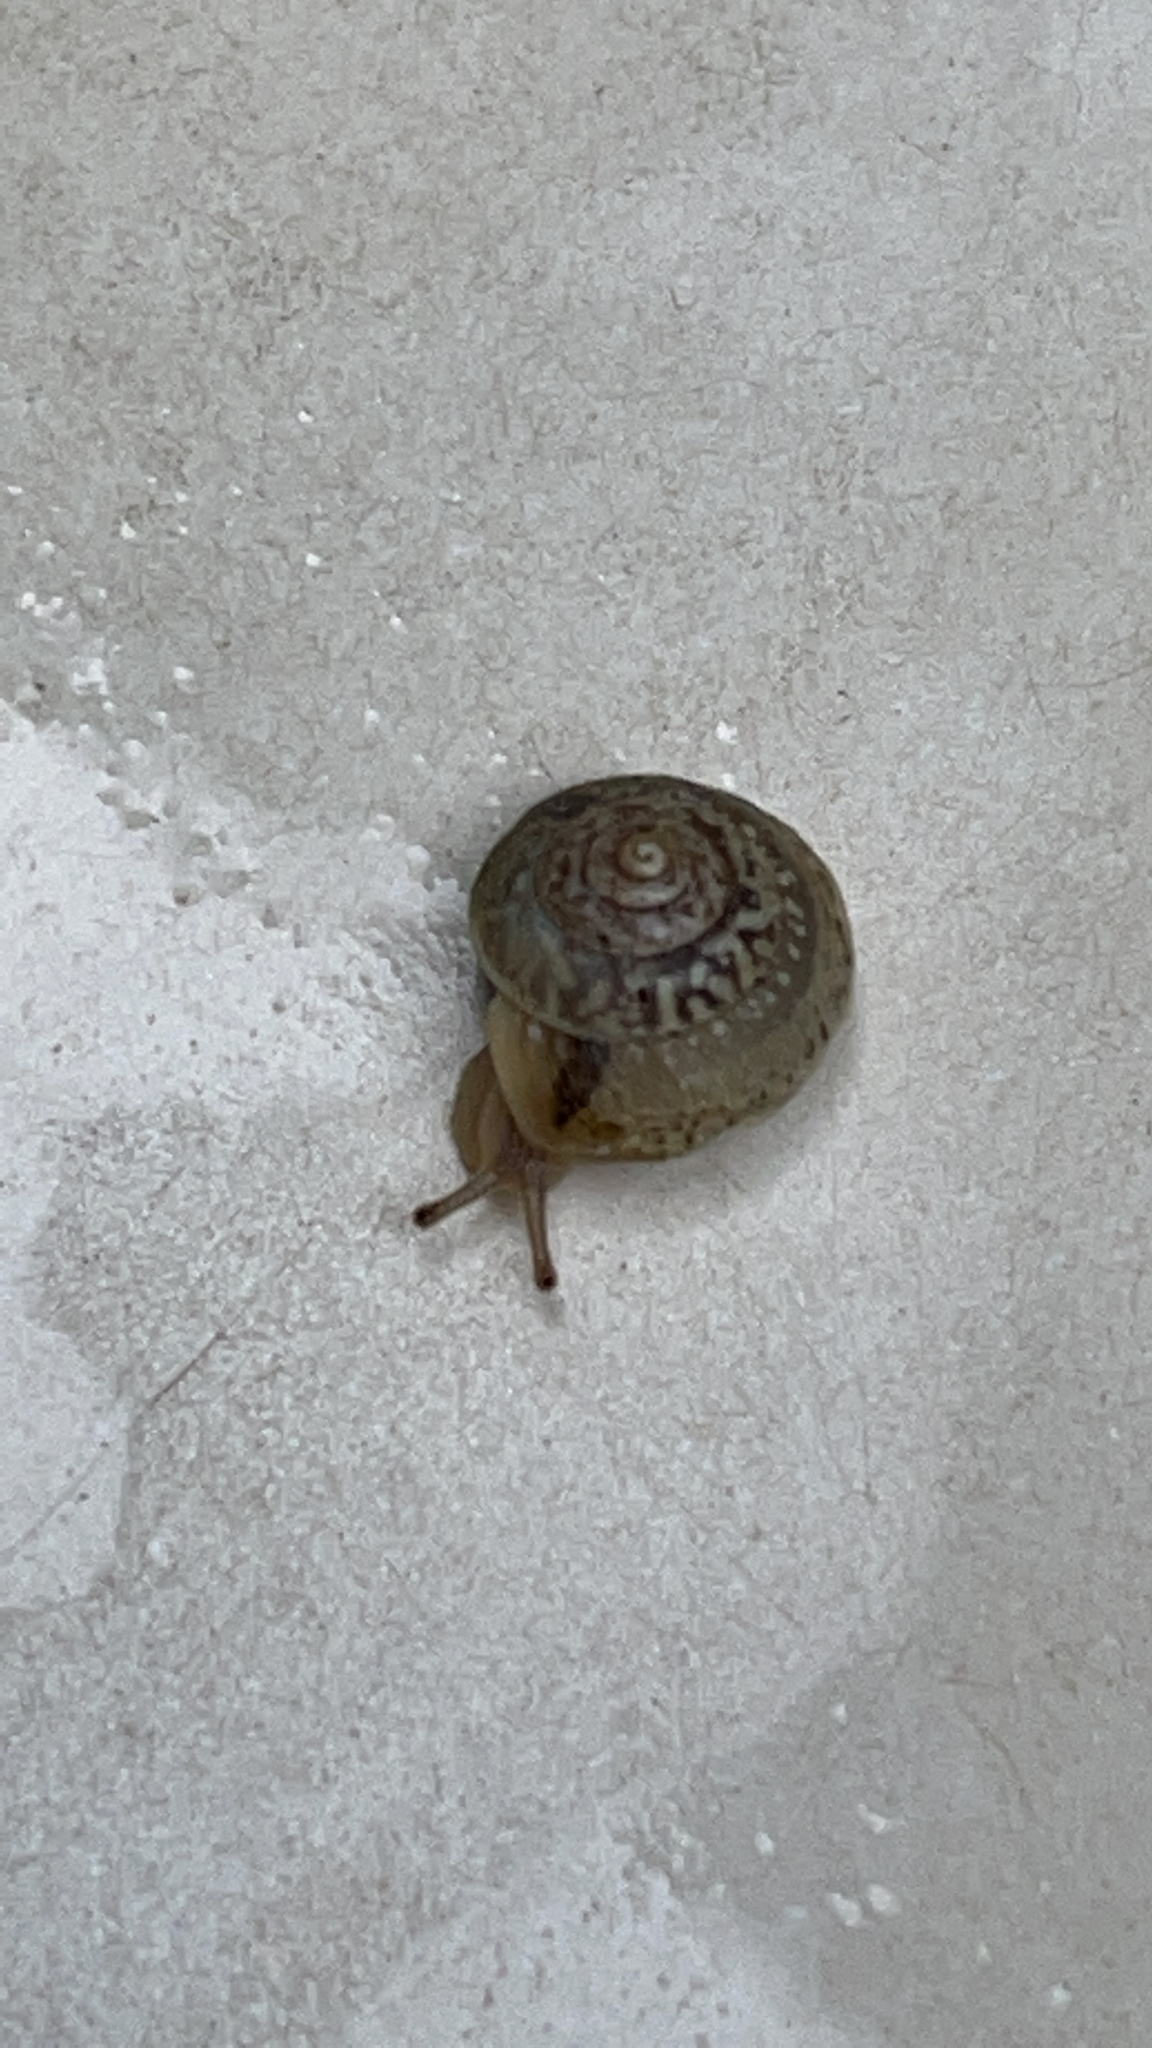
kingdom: Animalia
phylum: Mollusca
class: Gastropoda
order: Stylommatophora
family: Hygromiidae
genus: Hygromia
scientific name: Hygromia cinctella
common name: Girdled snail
